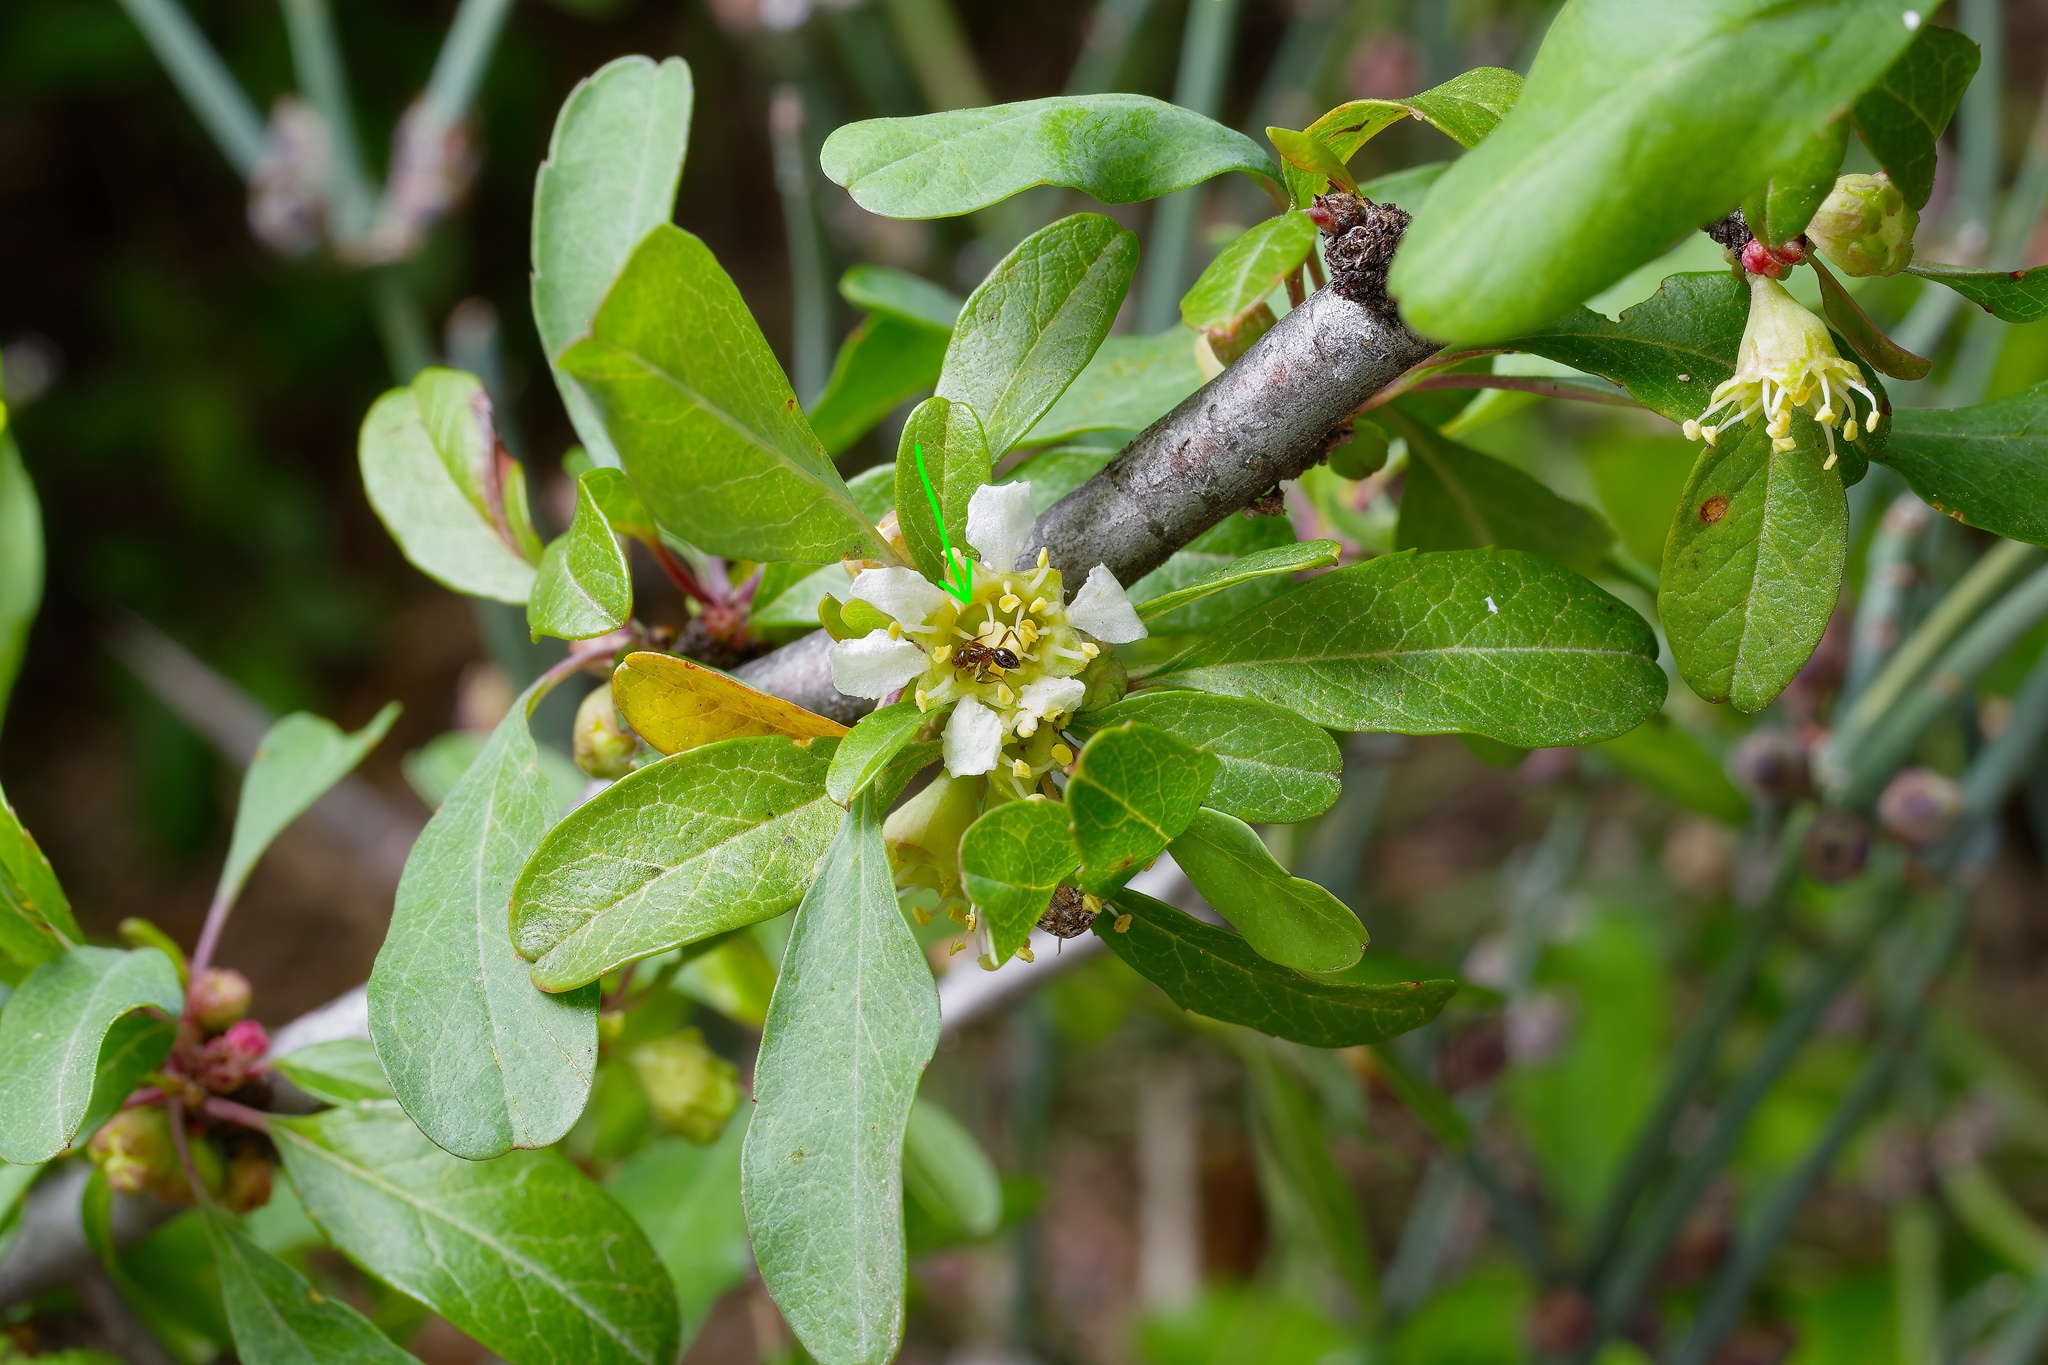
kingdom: Animalia
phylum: Arthropoda
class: Insecta
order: Hymenoptera
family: Formicidae
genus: Solenopsis
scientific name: Solenopsis invicta
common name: Red imported fire ant
